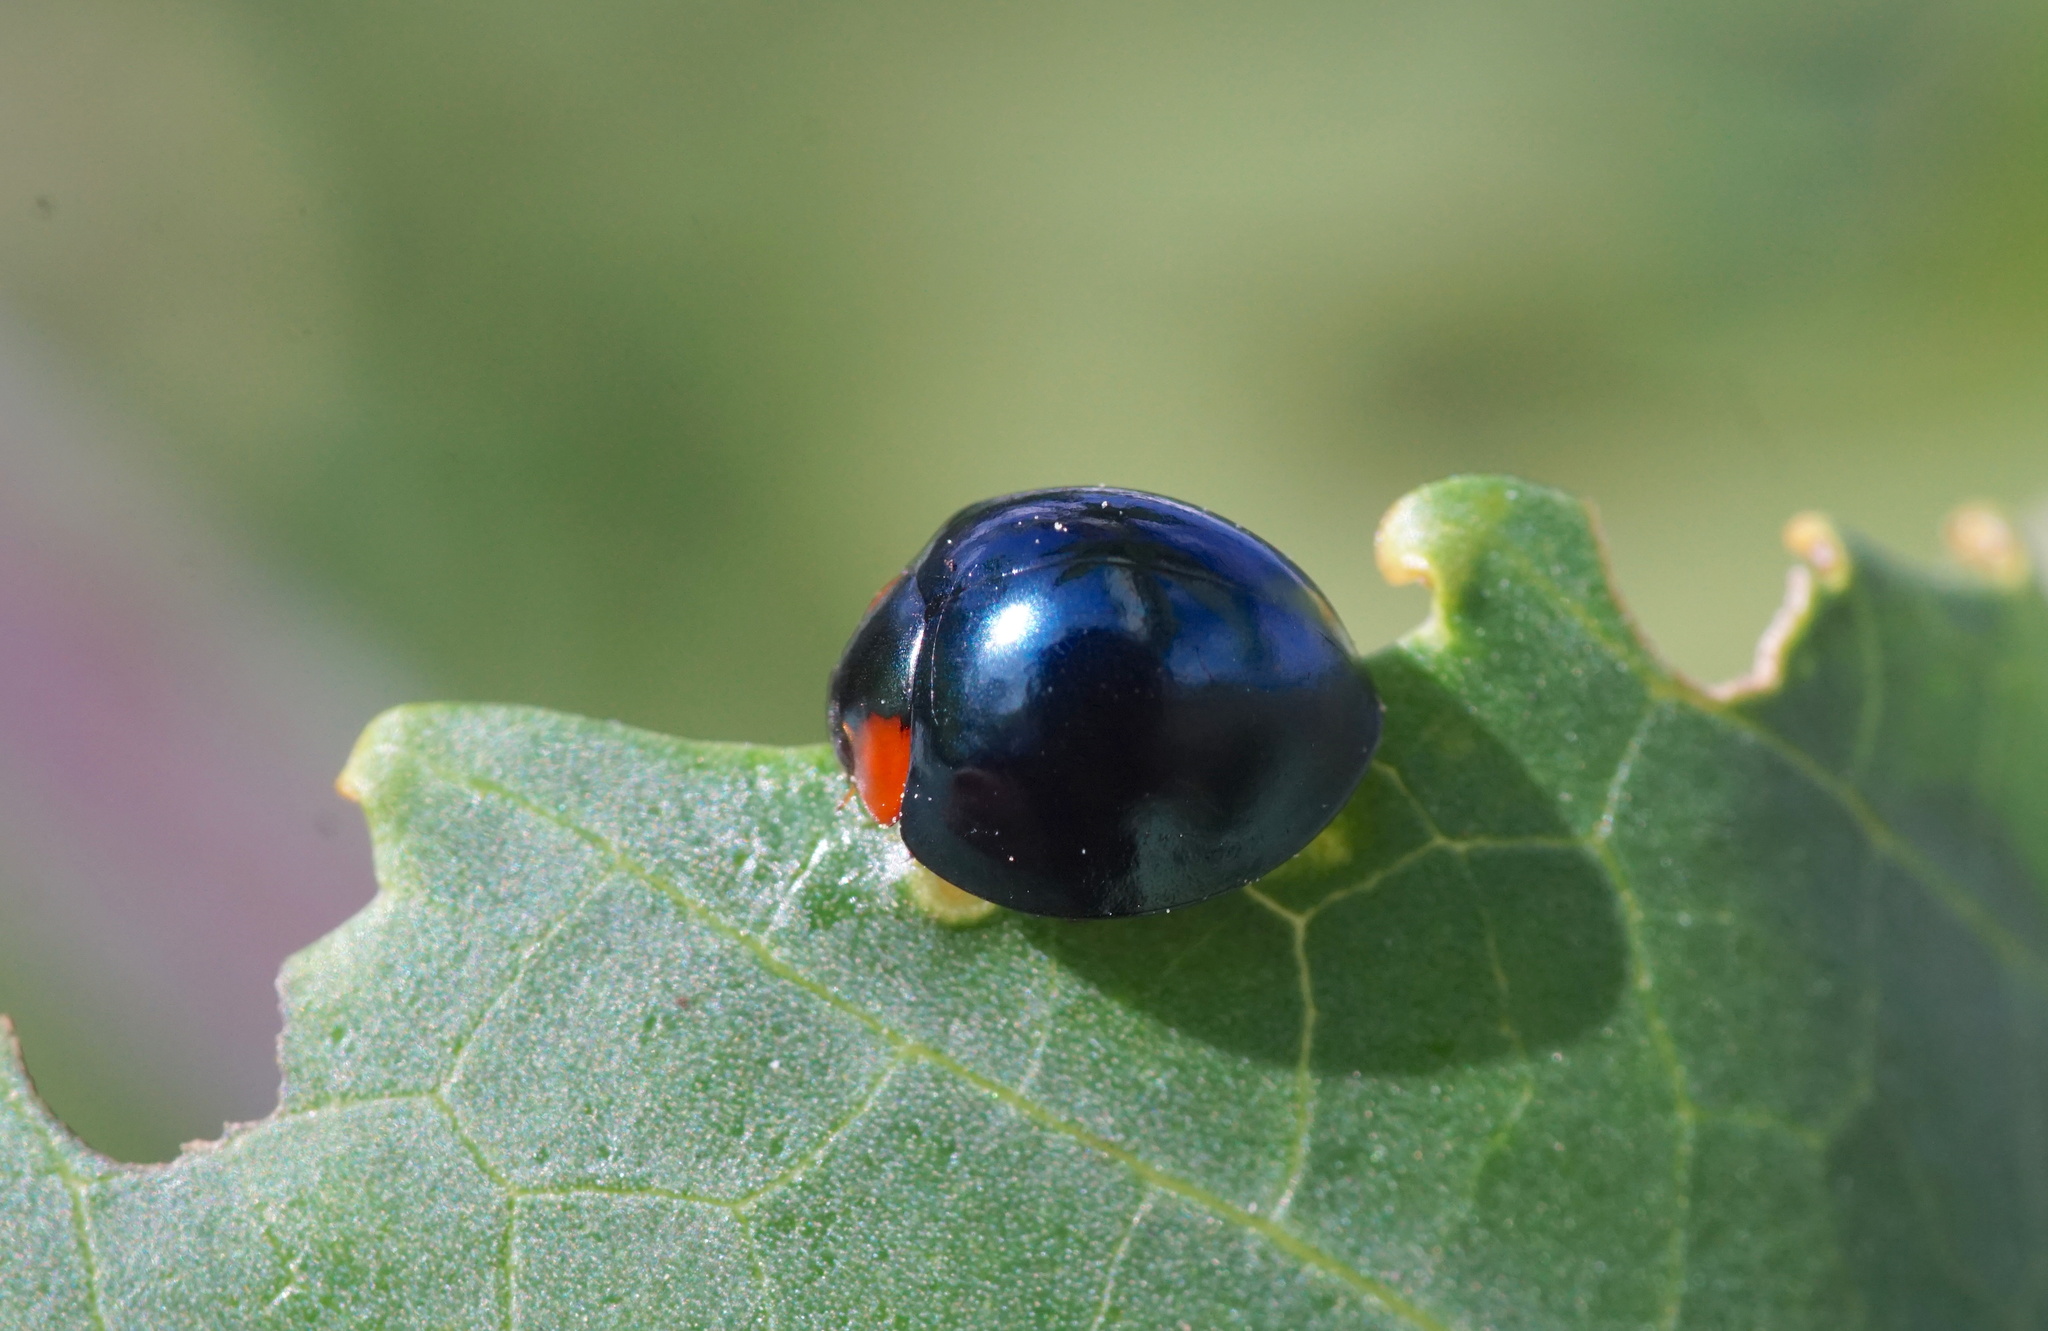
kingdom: Animalia
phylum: Arthropoda
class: Insecta
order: Coleoptera
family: Coccinellidae
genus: Curinus
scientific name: Curinus coeruleus
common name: Ladybird beetle
